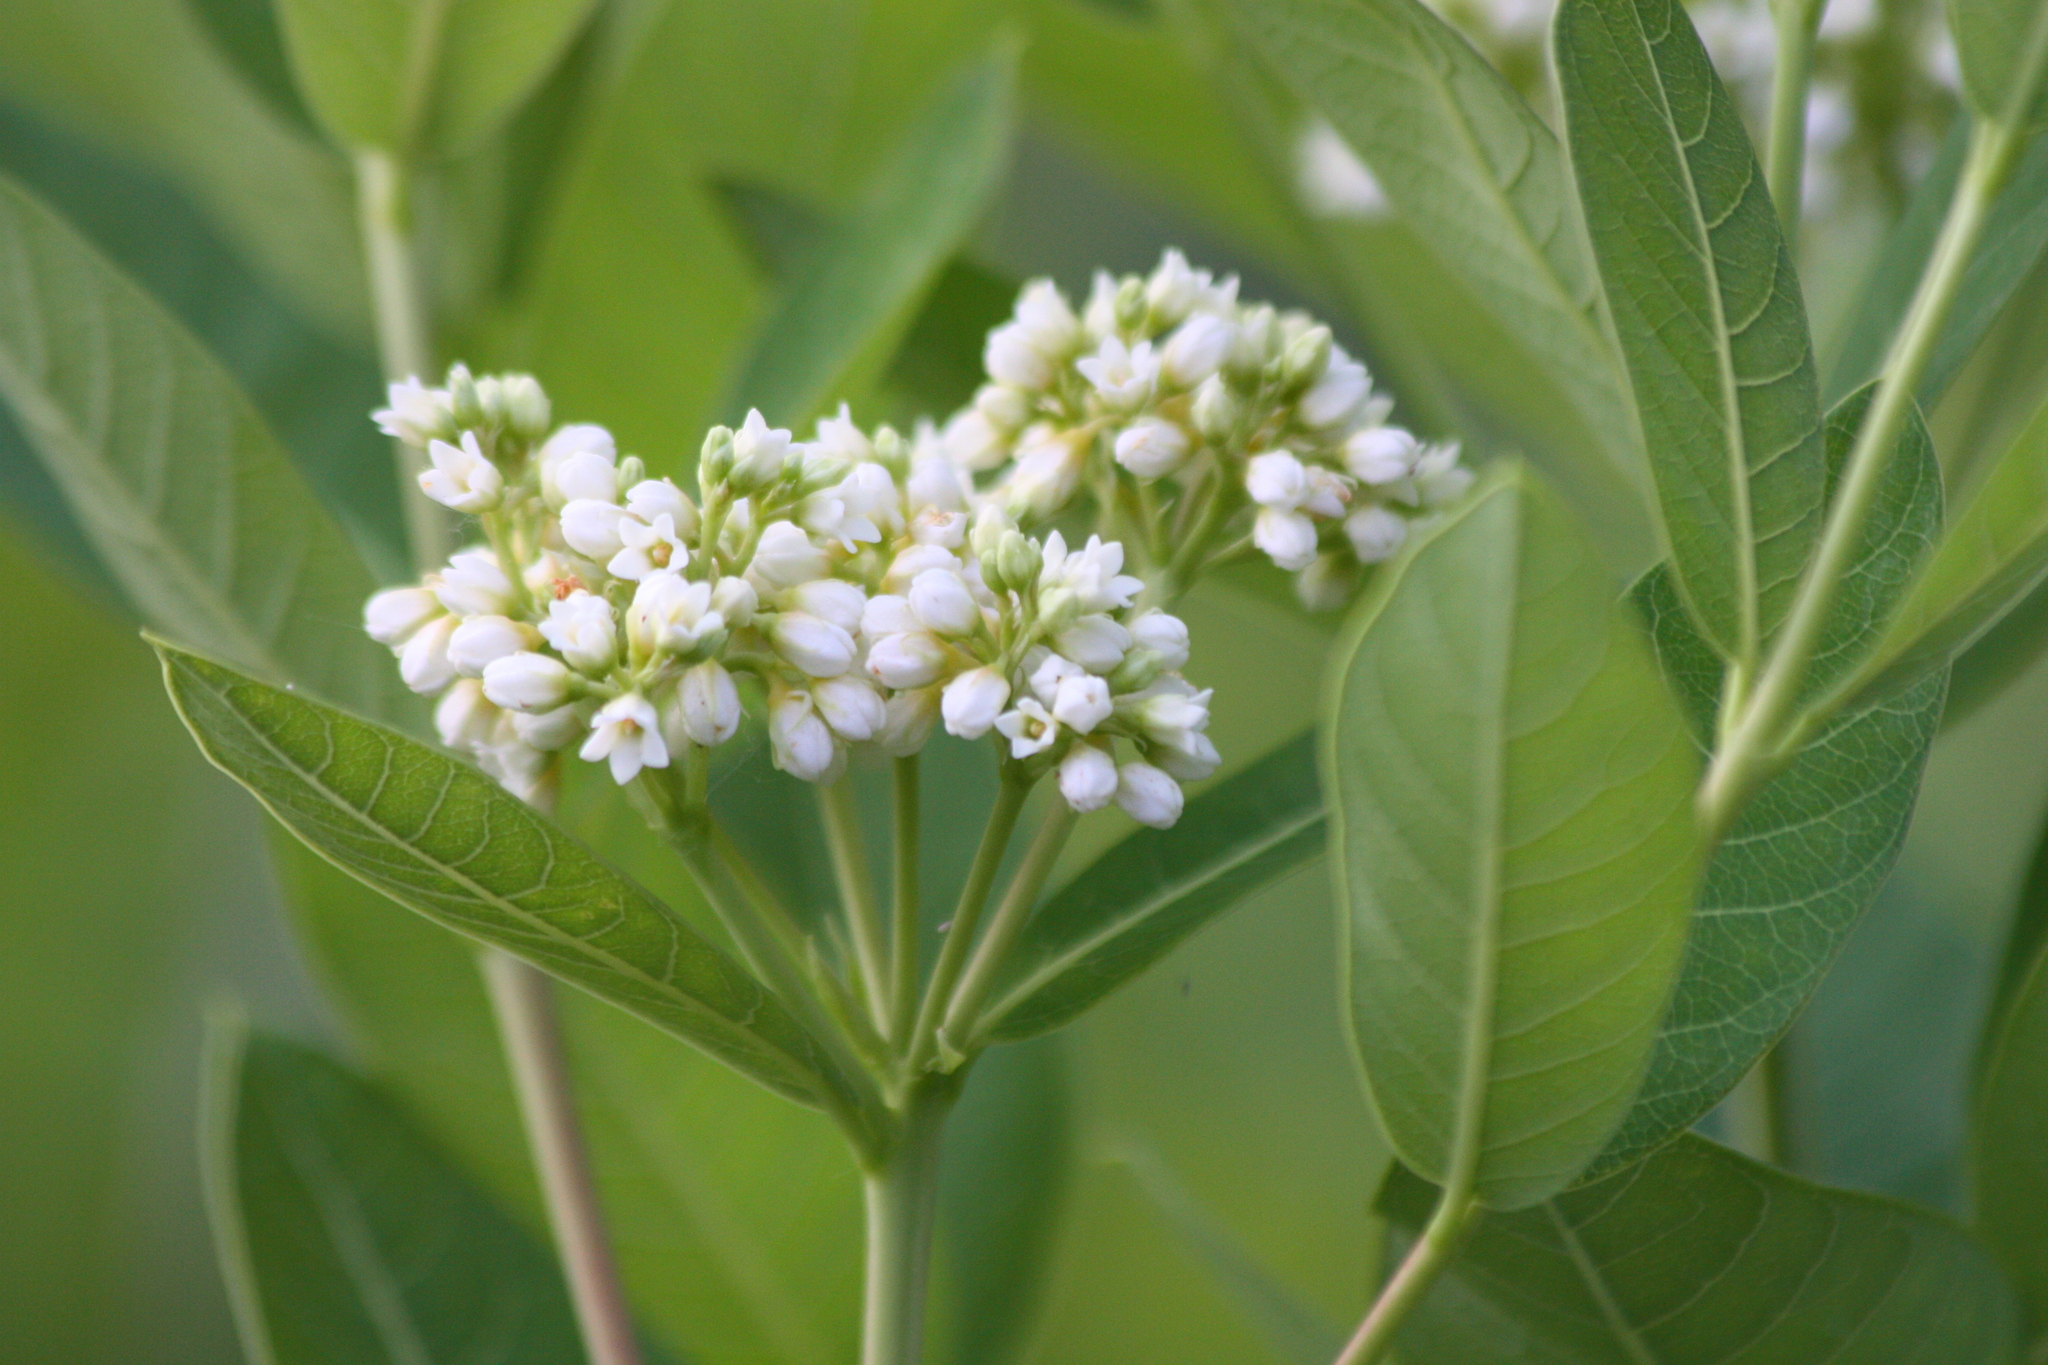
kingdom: Plantae
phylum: Tracheophyta
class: Magnoliopsida
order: Gentianales
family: Apocynaceae
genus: Apocynum
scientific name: Apocynum cannabinum
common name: Hemp dogbane
